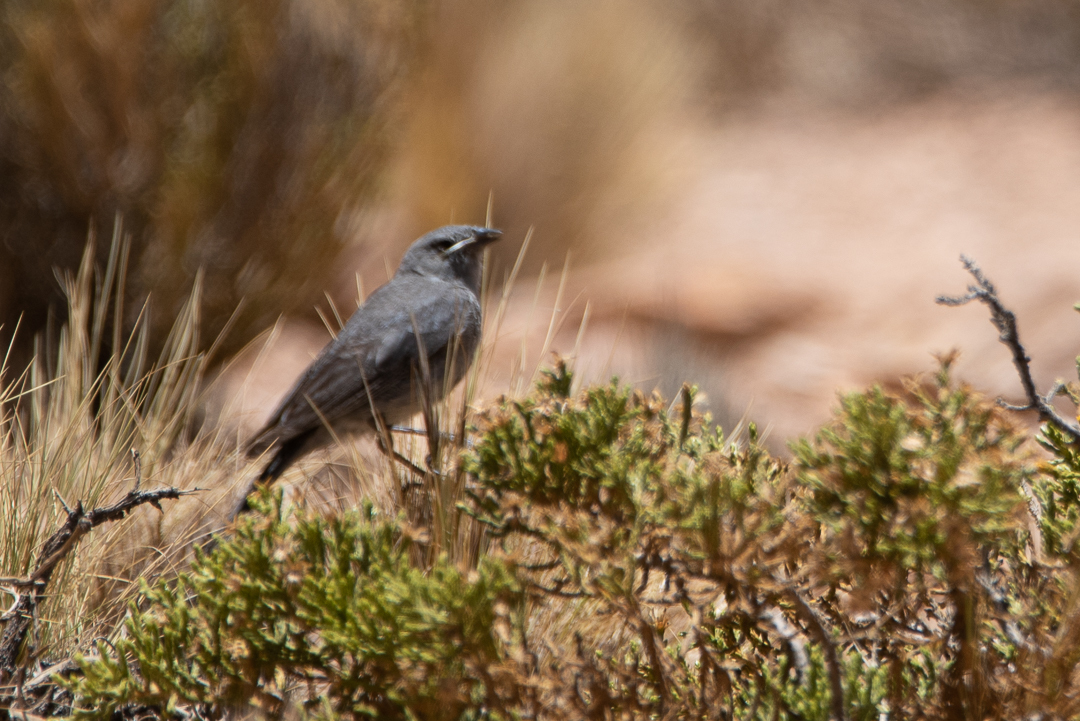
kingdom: Animalia
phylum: Chordata
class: Aves
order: Passeriformes
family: Thraupidae
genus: Geospizopsis
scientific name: Geospizopsis unicolor
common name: Plumbeous sierra-finch
